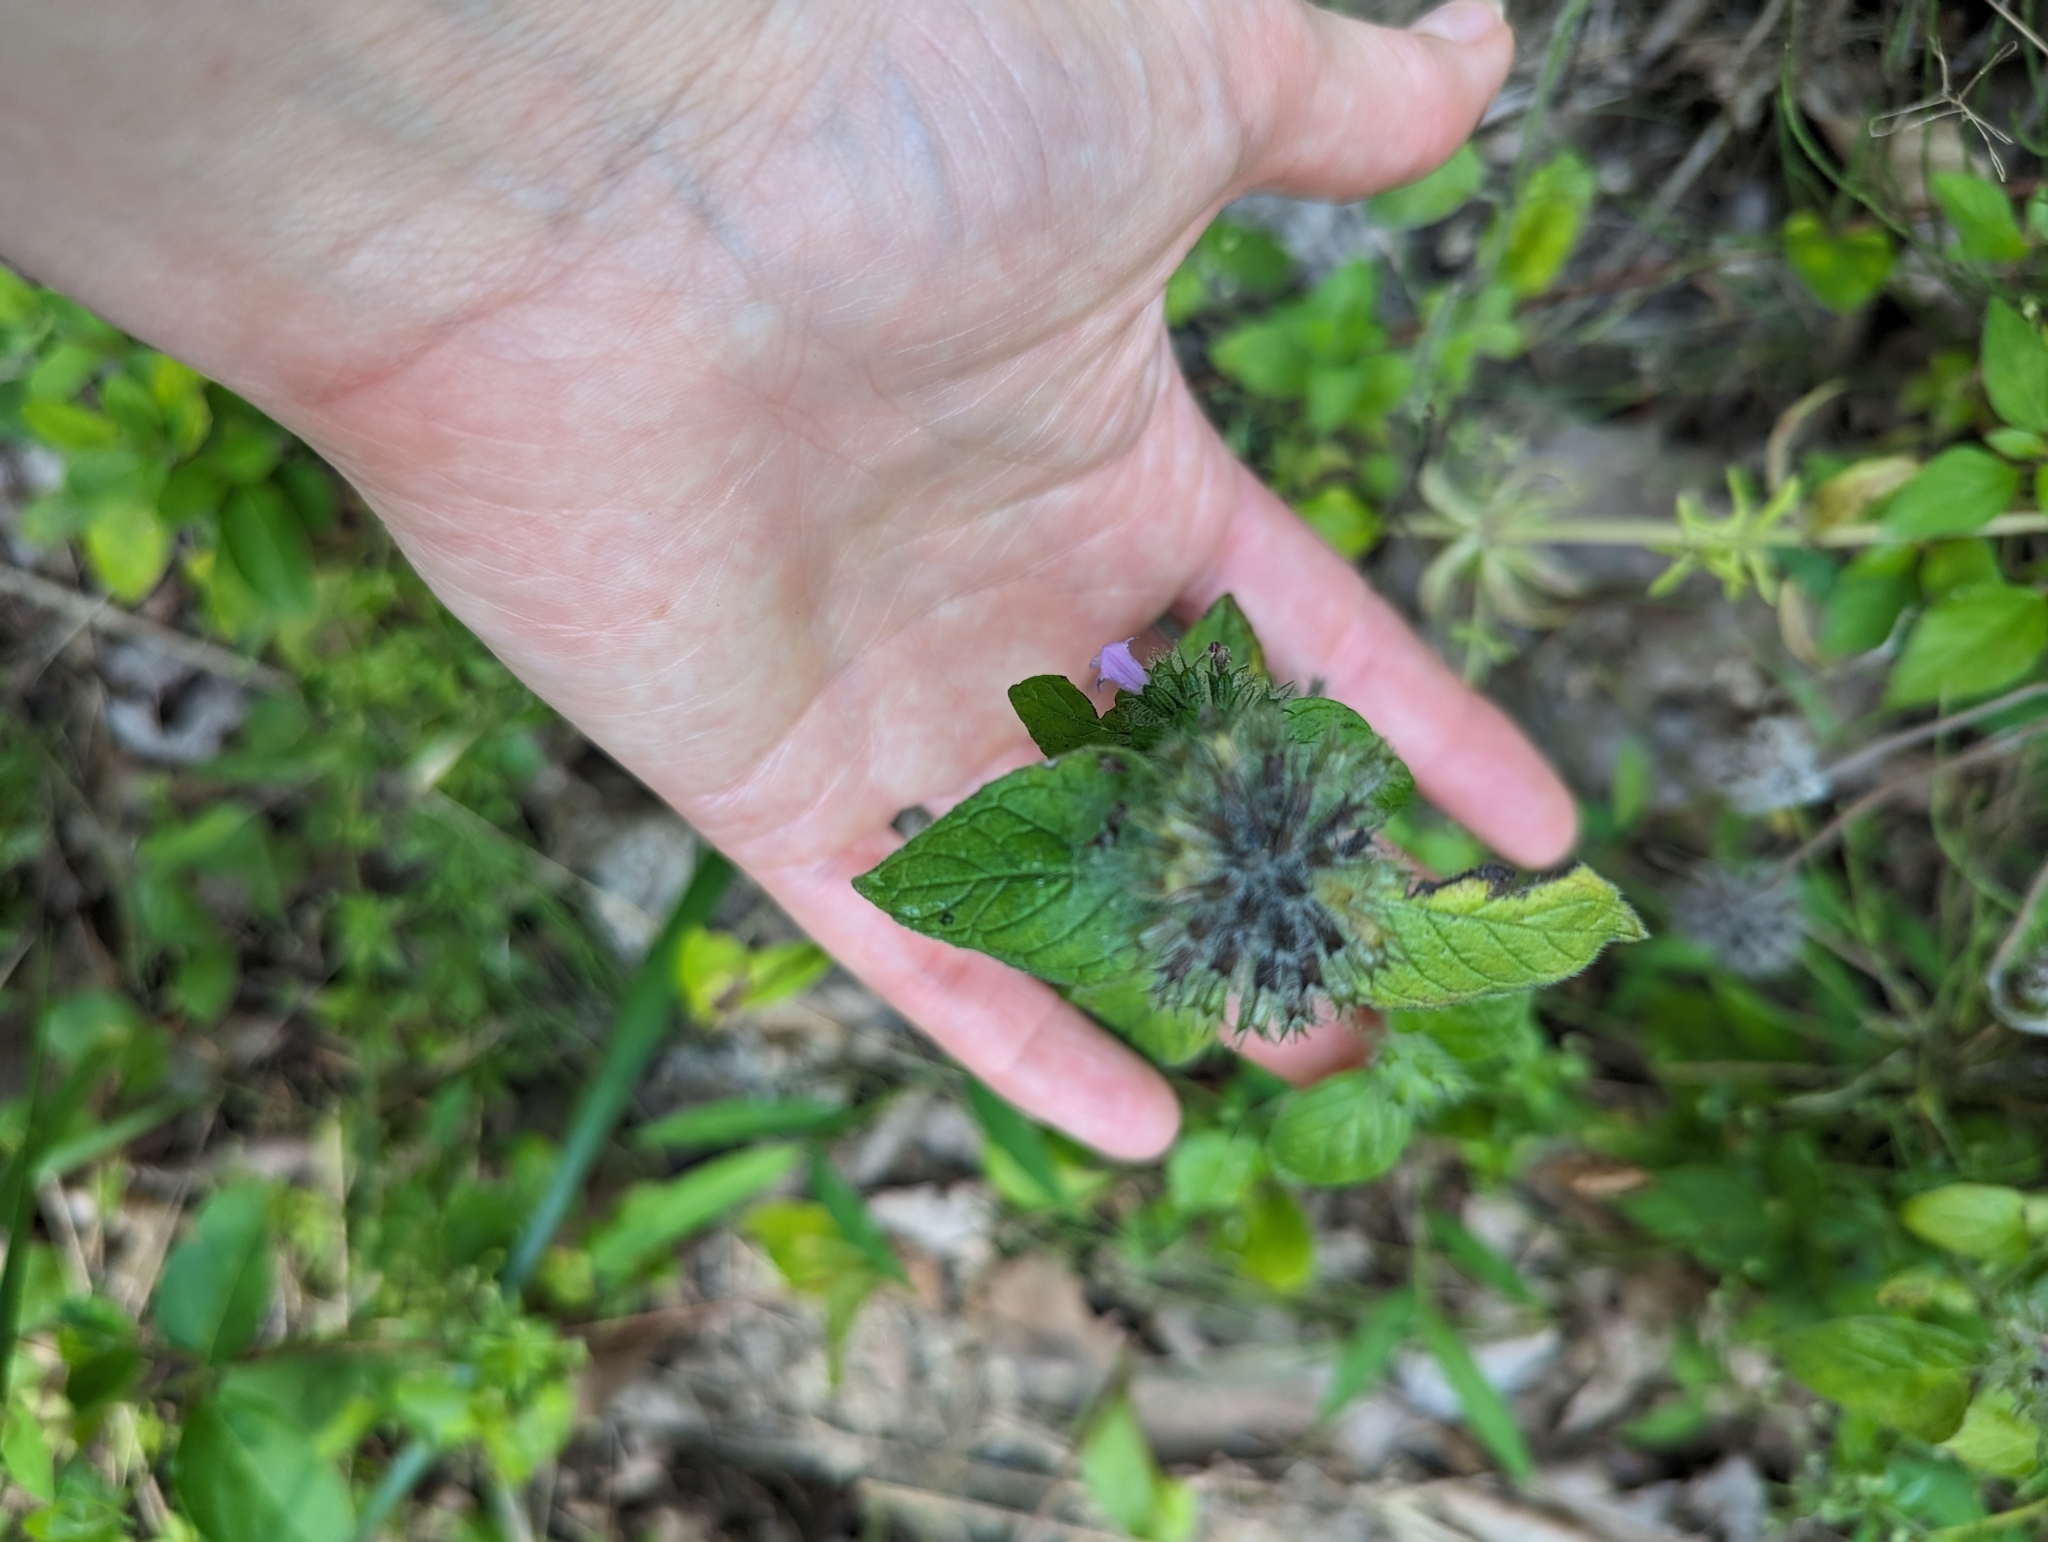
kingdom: Plantae
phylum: Tracheophyta
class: Magnoliopsida
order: Lamiales
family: Lamiaceae
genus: Clinopodium
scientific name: Clinopodium vulgare
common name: Wild basil
